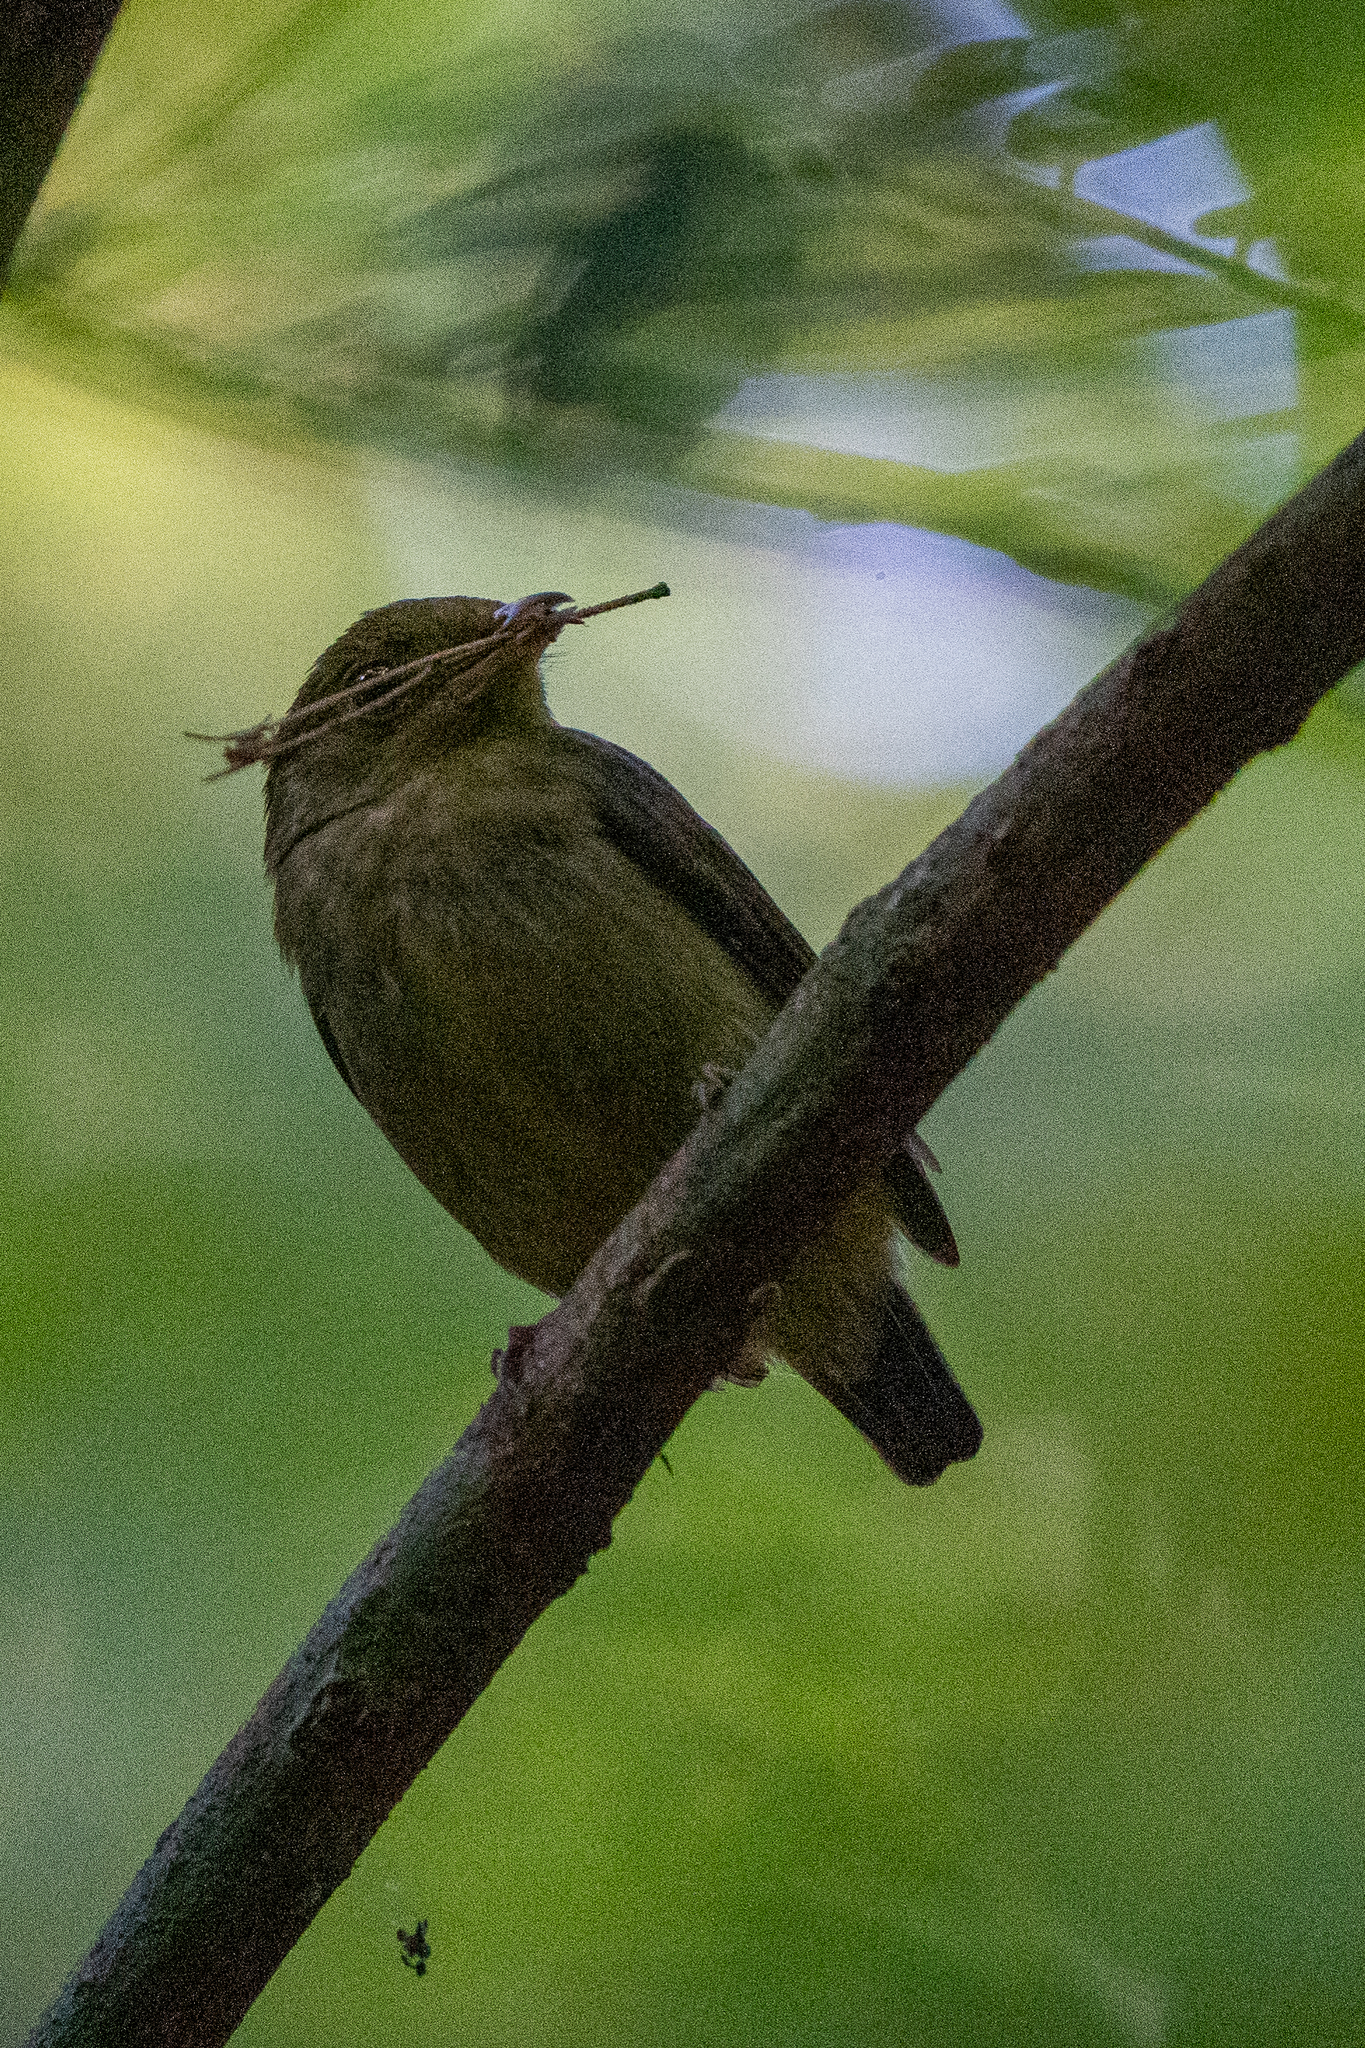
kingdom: Animalia
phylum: Chordata
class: Aves
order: Passeriformes
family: Pipridae
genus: Pipra
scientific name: Pipra mentalis
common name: Red-capped manakin
